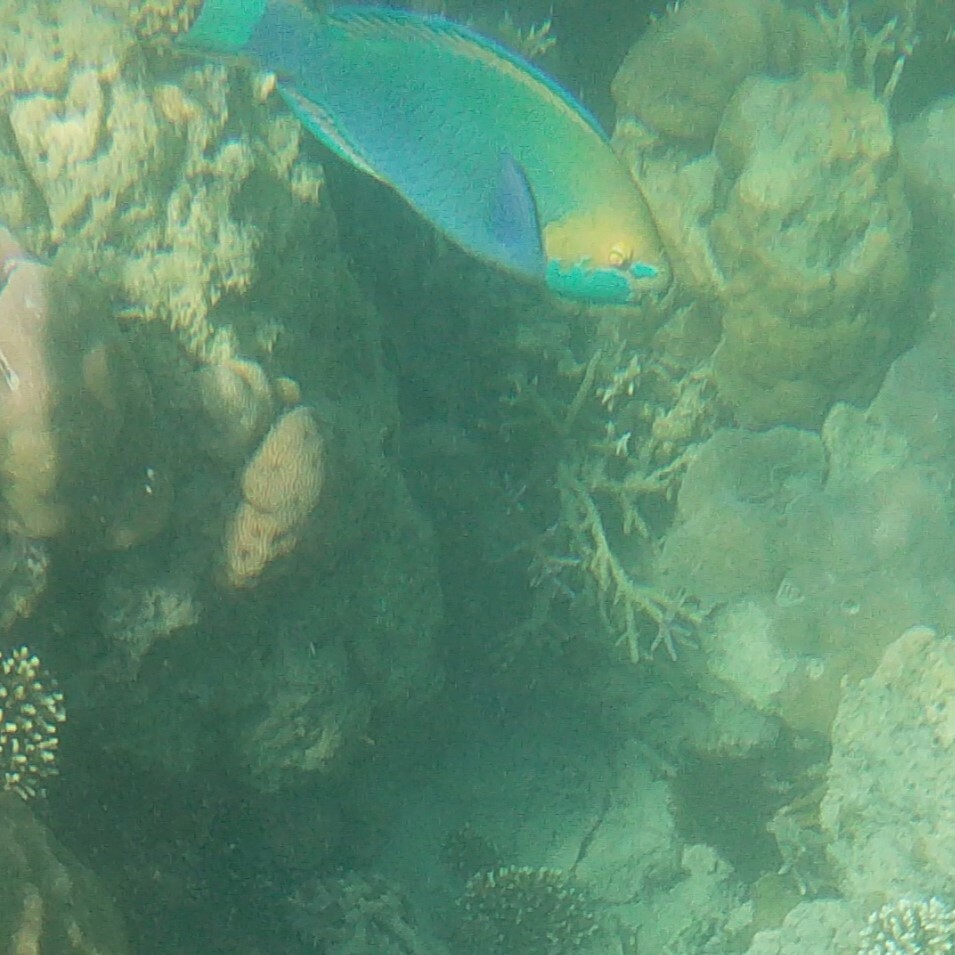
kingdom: Animalia
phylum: Chordata
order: Perciformes
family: Scaridae
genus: Scarus
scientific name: Scarus prasiognathos
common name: Singapore parrotfish
